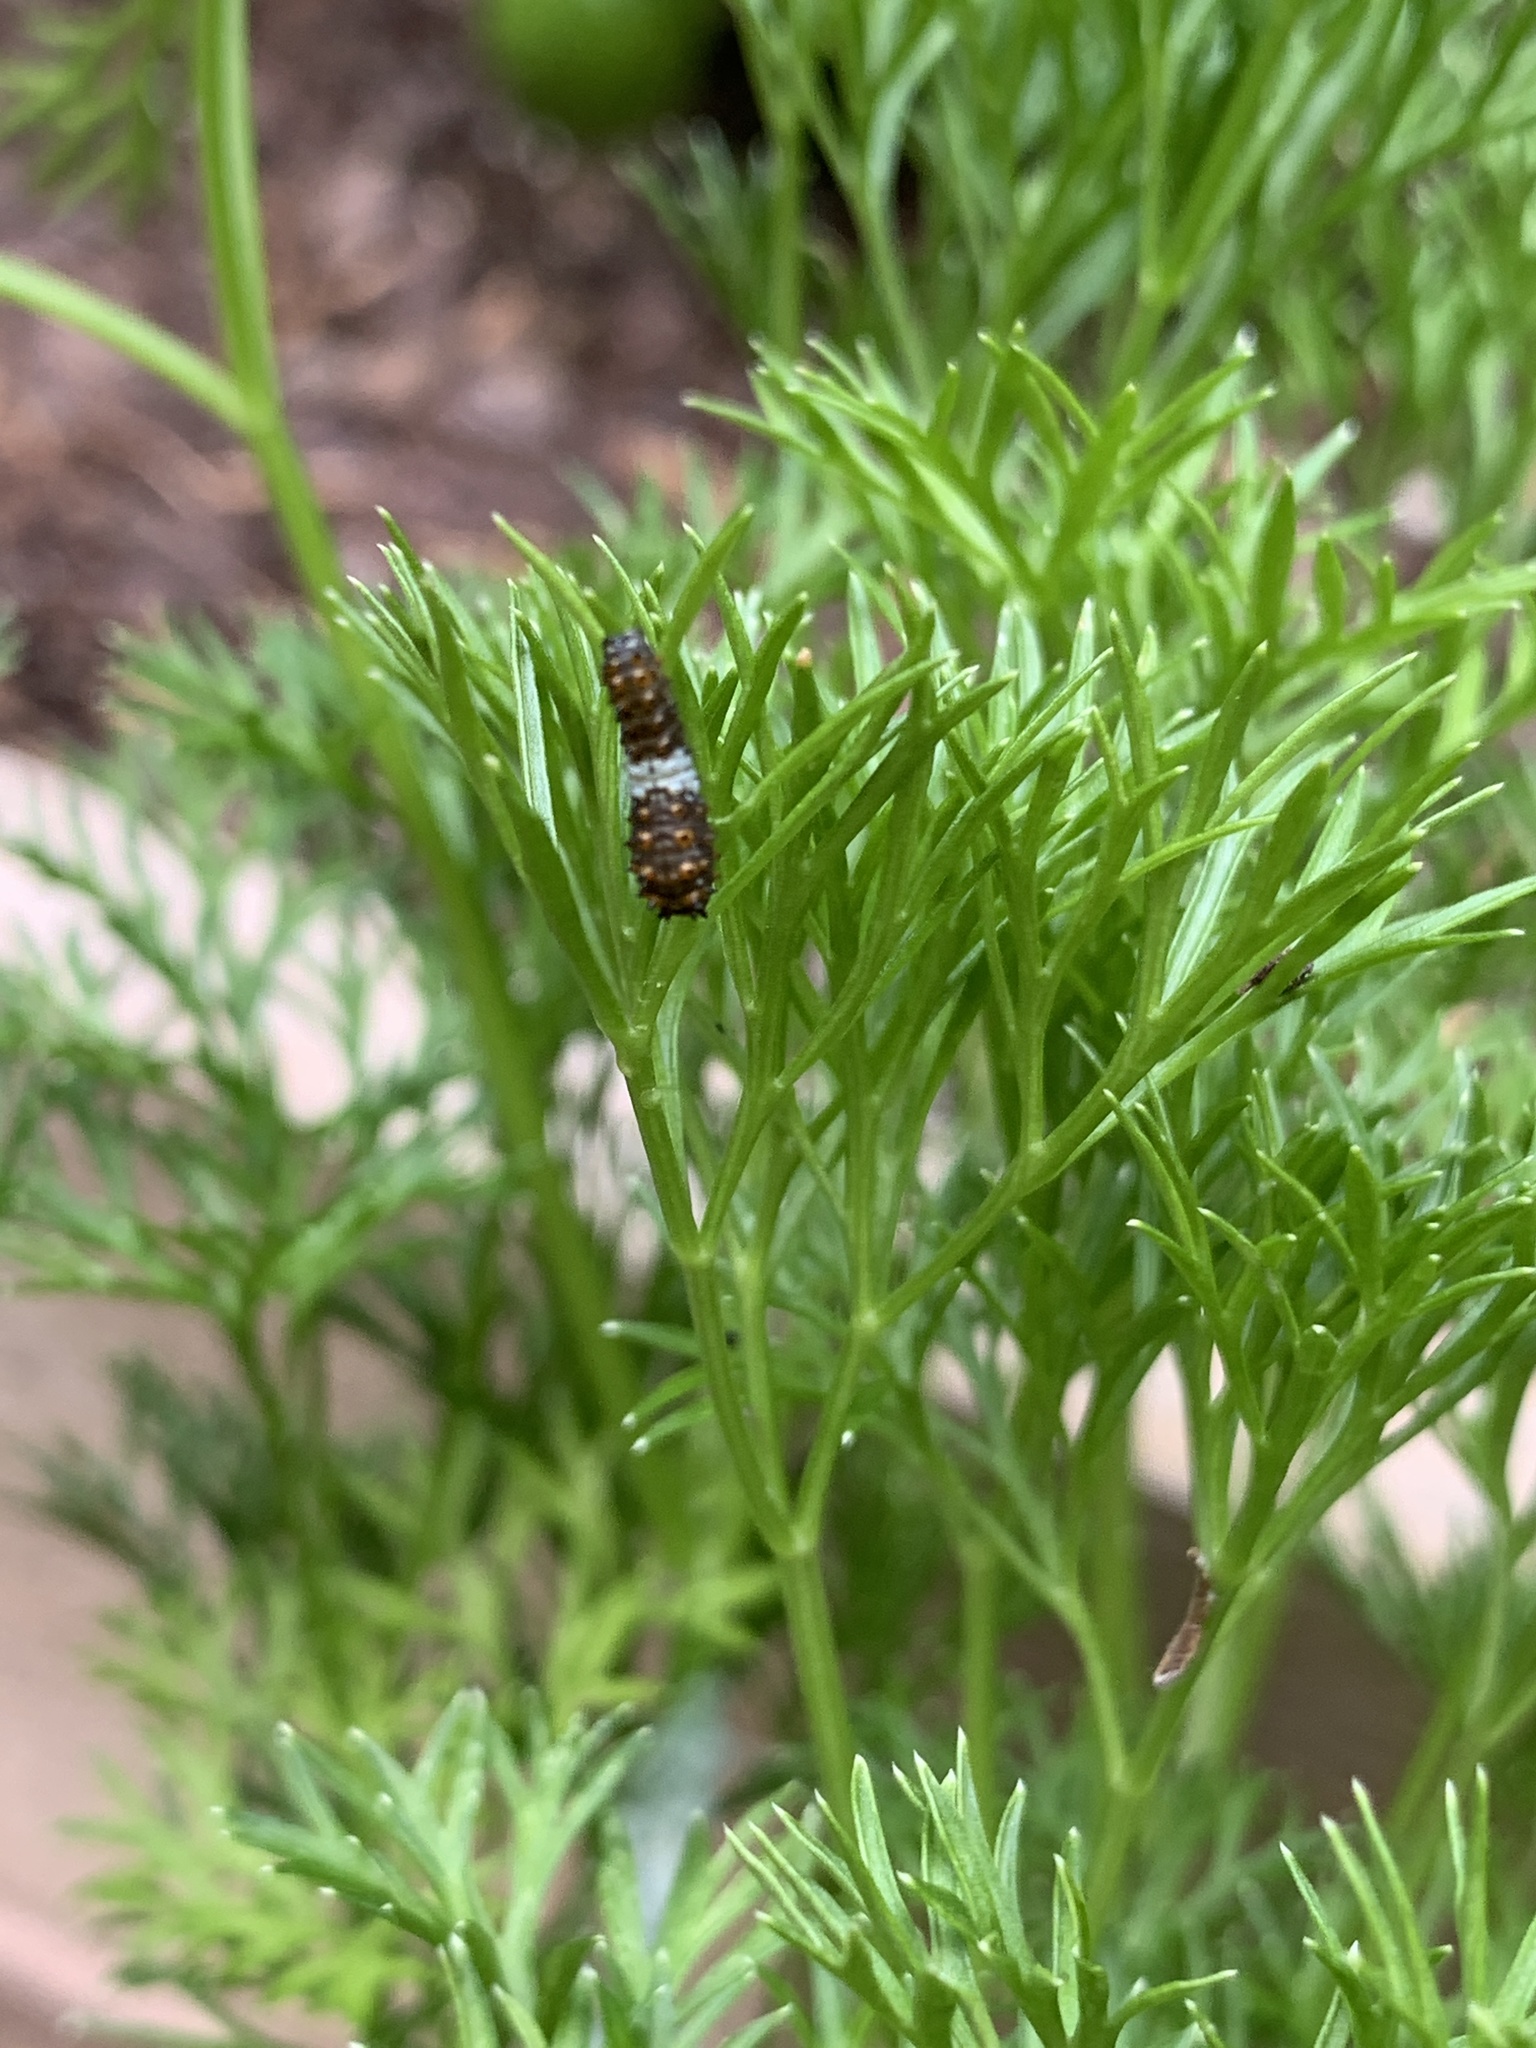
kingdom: Animalia
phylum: Arthropoda
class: Insecta
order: Lepidoptera
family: Papilionidae
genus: Papilio
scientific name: Papilio polyxenes
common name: Black swallowtail
